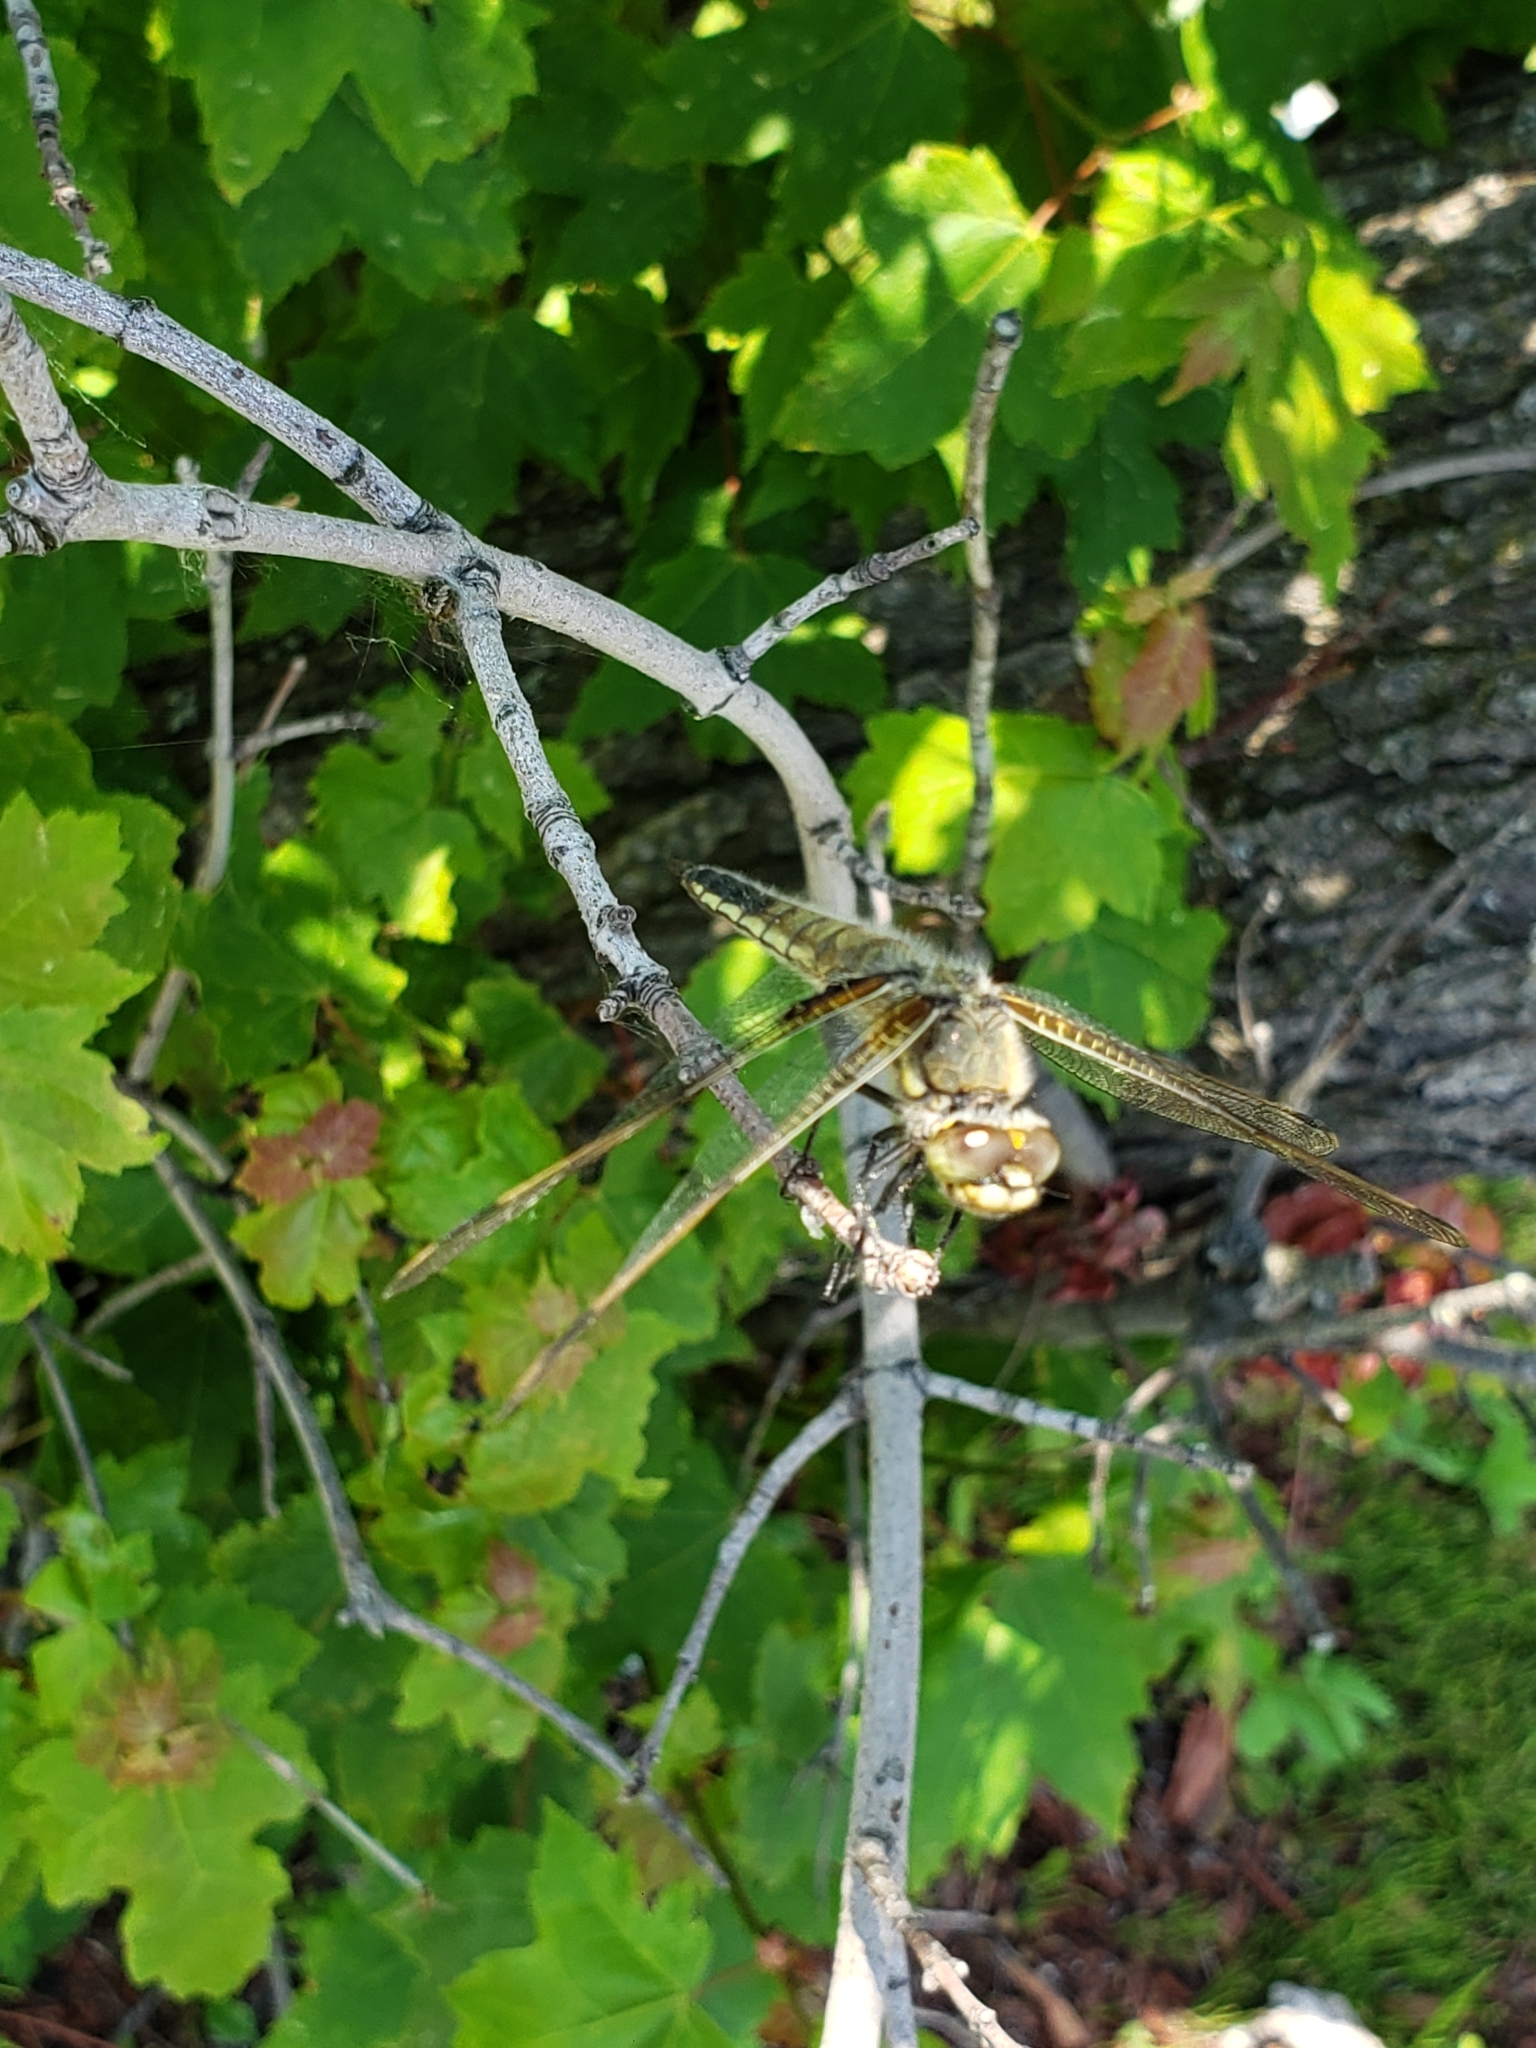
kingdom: Animalia
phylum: Arthropoda
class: Insecta
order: Odonata
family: Libellulidae
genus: Libellula
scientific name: Libellula quadrimaculata
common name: Four-spotted chaser
